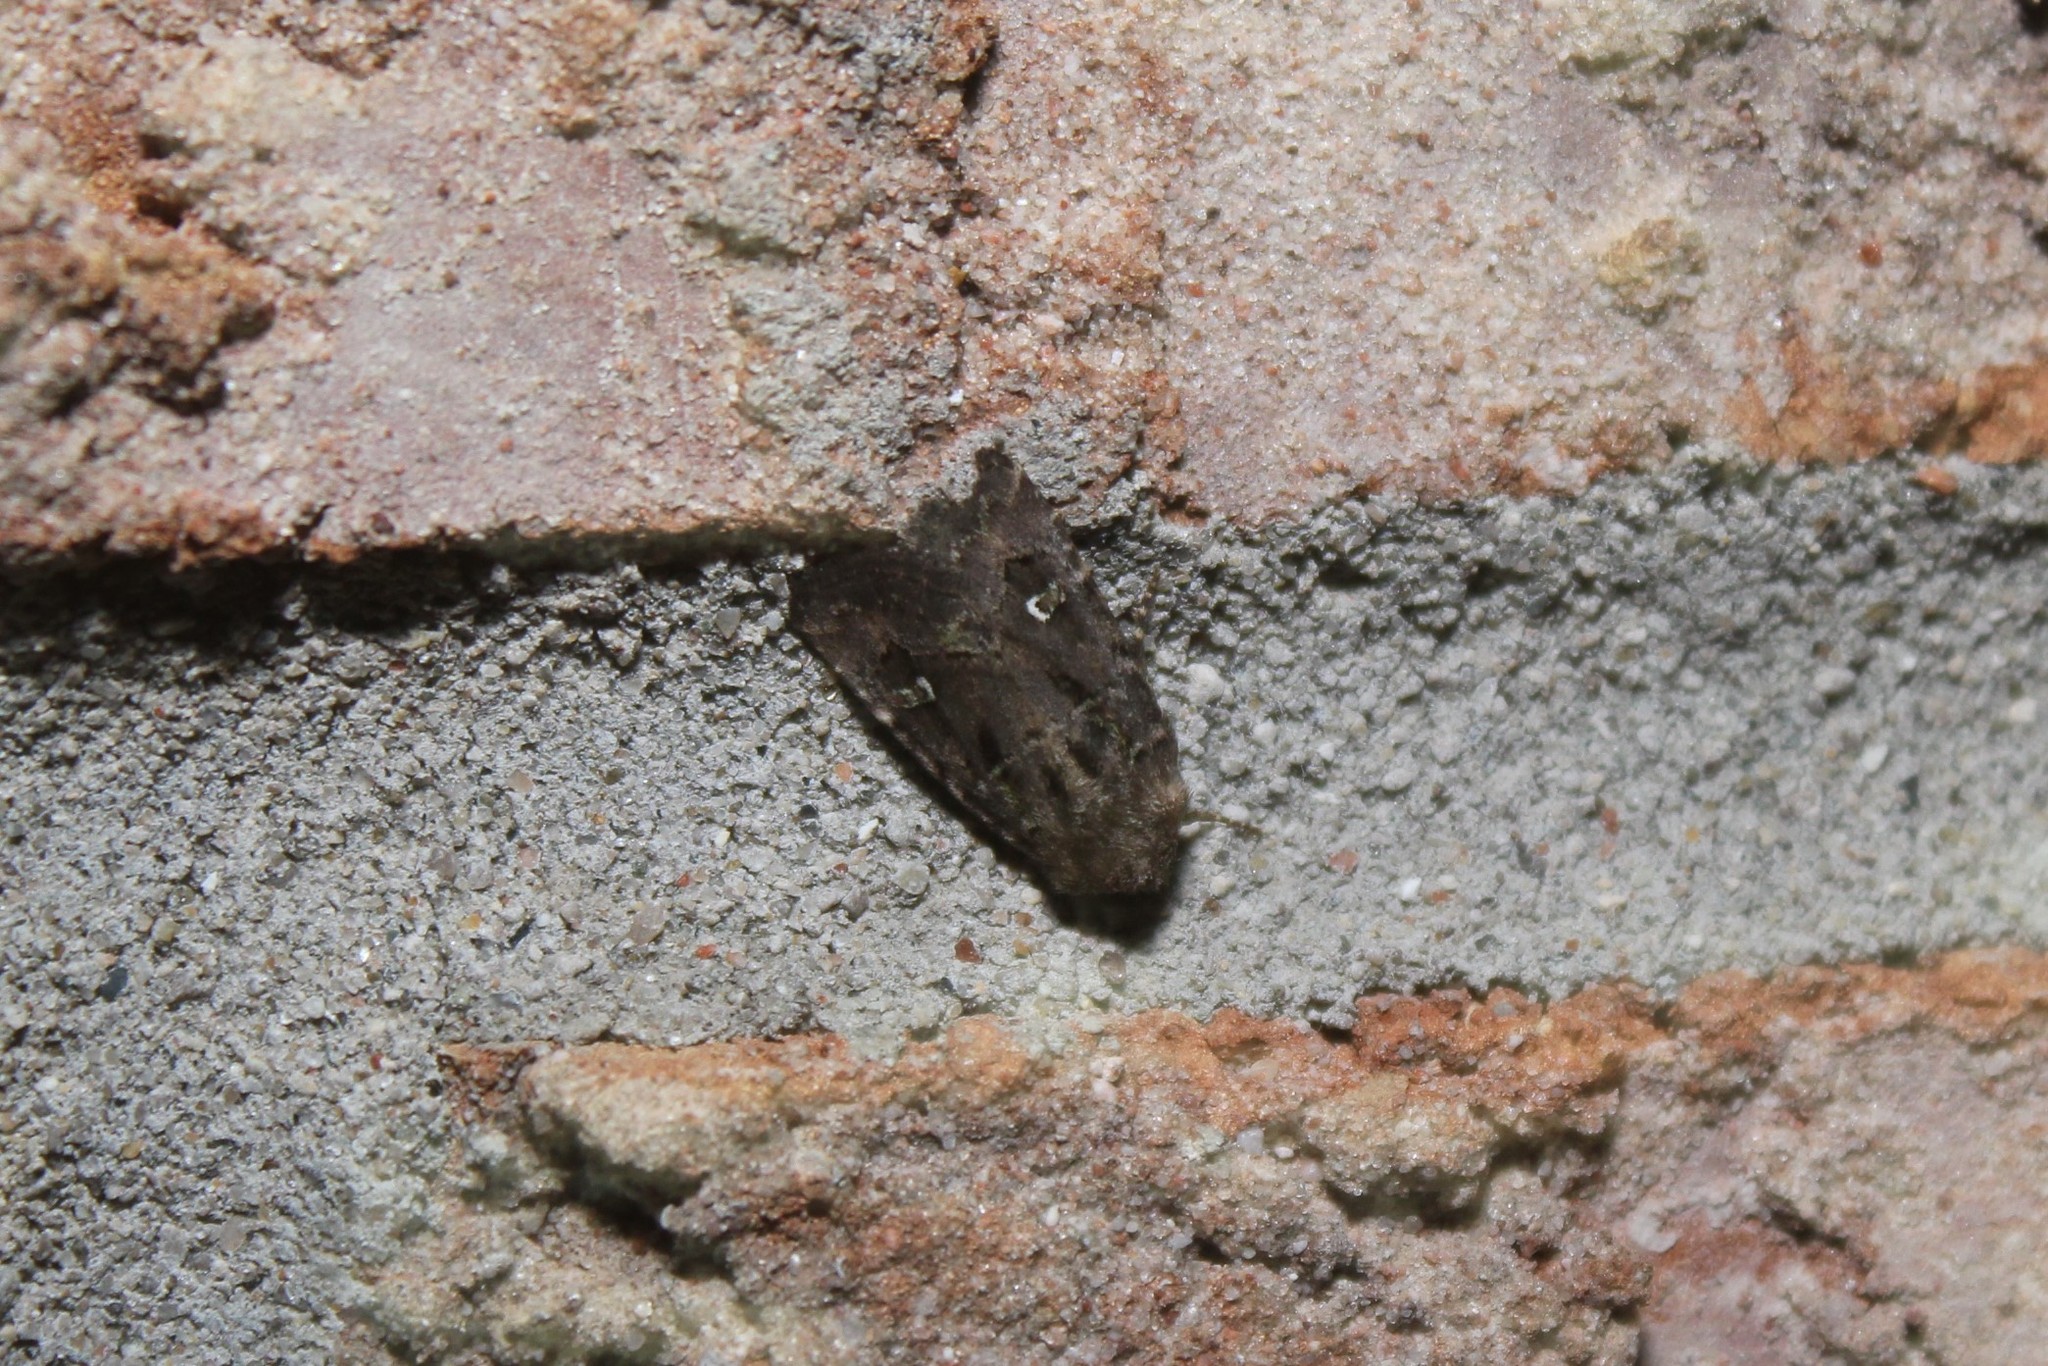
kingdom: Animalia
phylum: Arthropoda
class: Insecta
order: Lepidoptera
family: Noctuidae
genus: Lacinipolia
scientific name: Lacinipolia renigera
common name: Kidney-spotted minor
